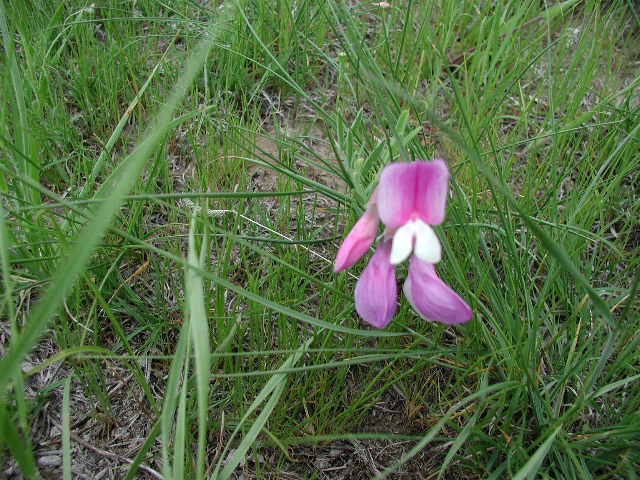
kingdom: Plantae
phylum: Tracheophyta
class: Magnoliopsida
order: Fabales
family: Fabaceae
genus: Lathyrus
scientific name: Lathyrus
